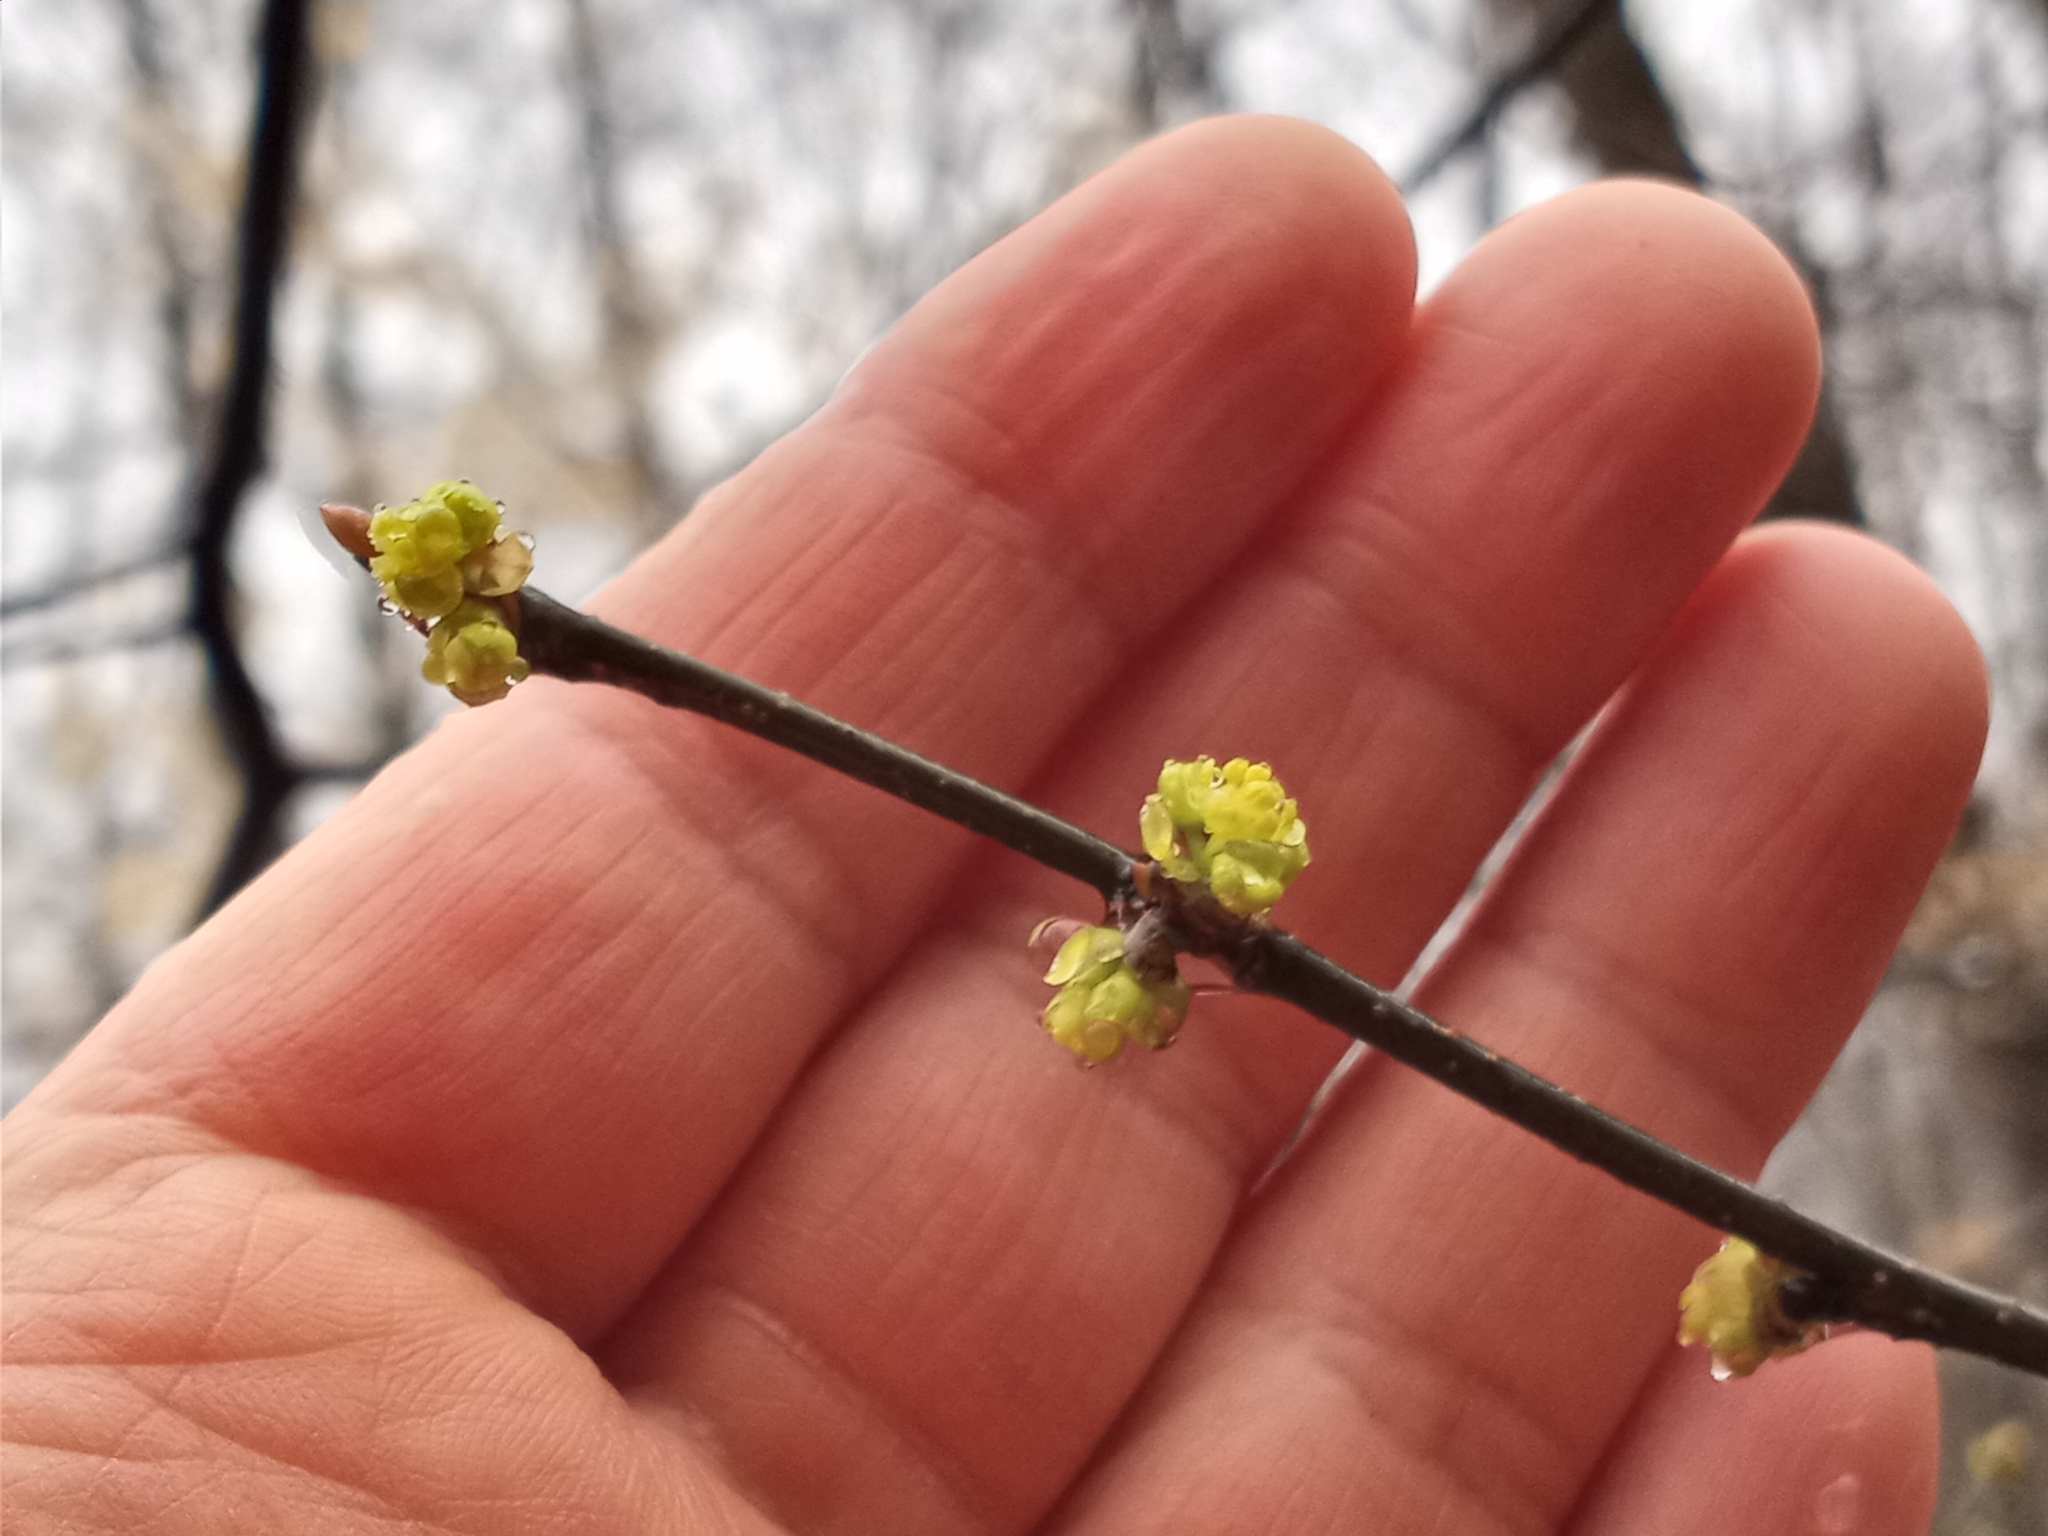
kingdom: Plantae
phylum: Tracheophyta
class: Magnoliopsida
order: Laurales
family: Lauraceae
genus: Lindera
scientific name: Lindera benzoin
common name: Spicebush
